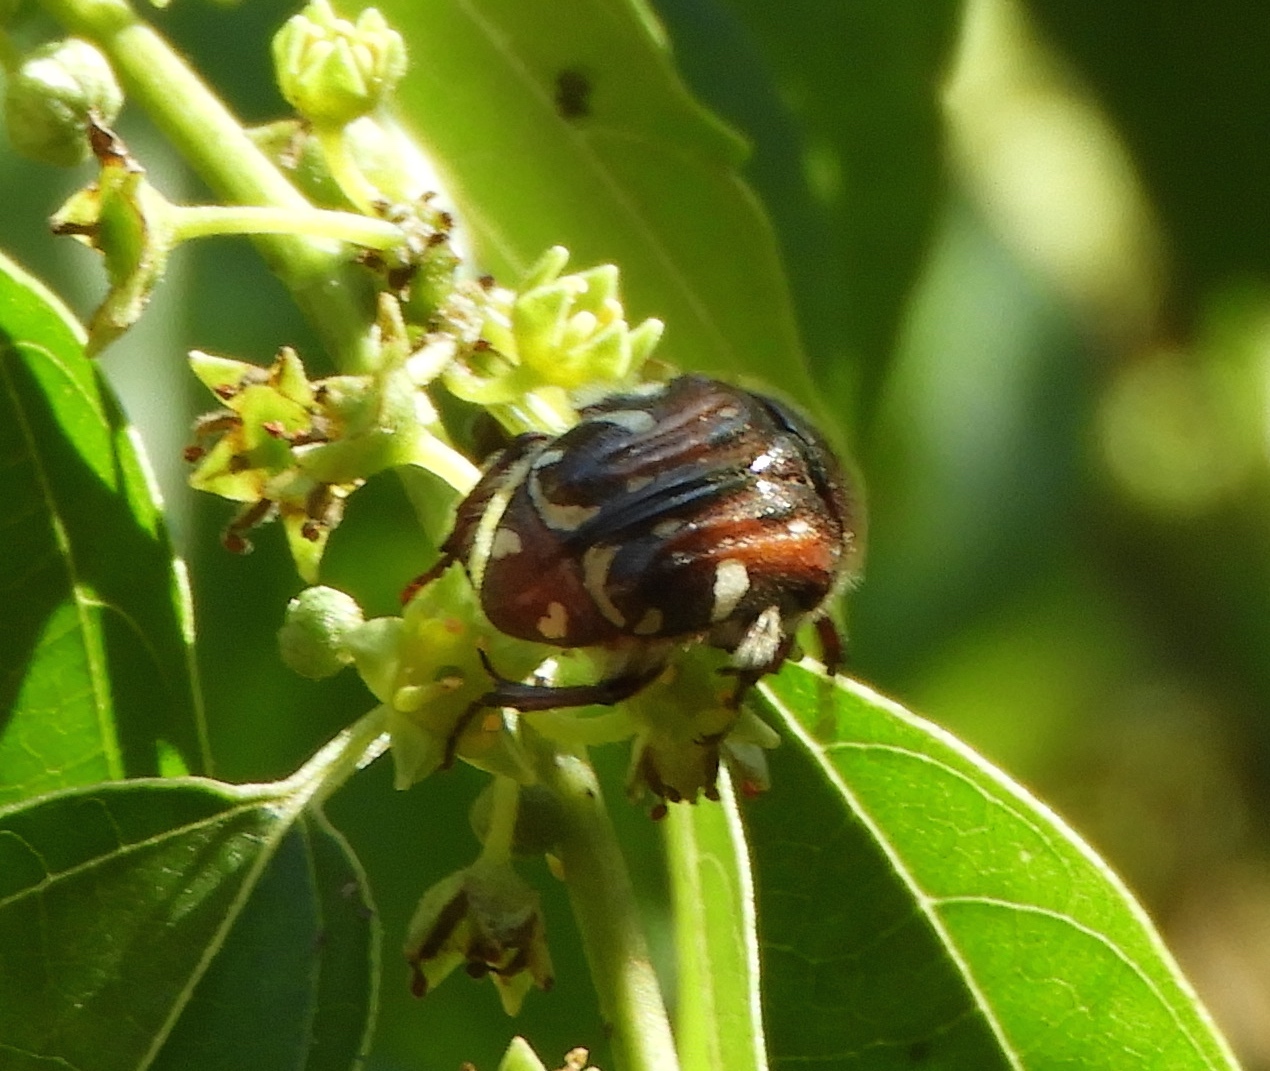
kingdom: Animalia
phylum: Arthropoda
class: Insecta
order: Coleoptera
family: Scarabaeidae
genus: Euphoria
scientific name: Euphoria pulchella
